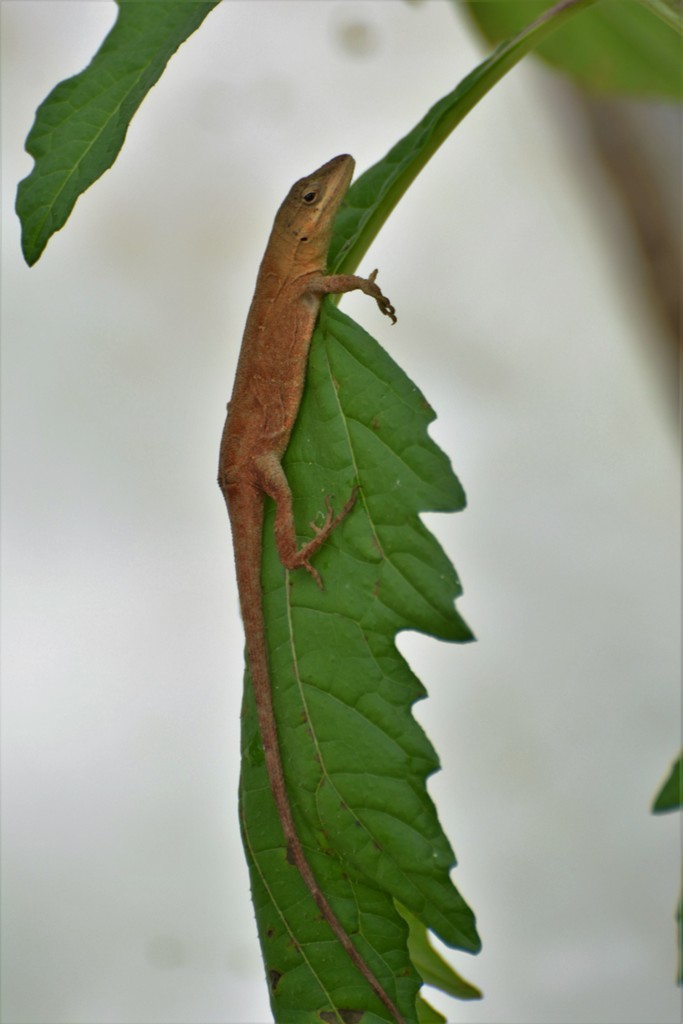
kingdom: Animalia
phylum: Chordata
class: Squamata
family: Dactyloidae
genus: Anolis
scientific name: Anolis anisolepis
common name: Chiapas ornate anole
